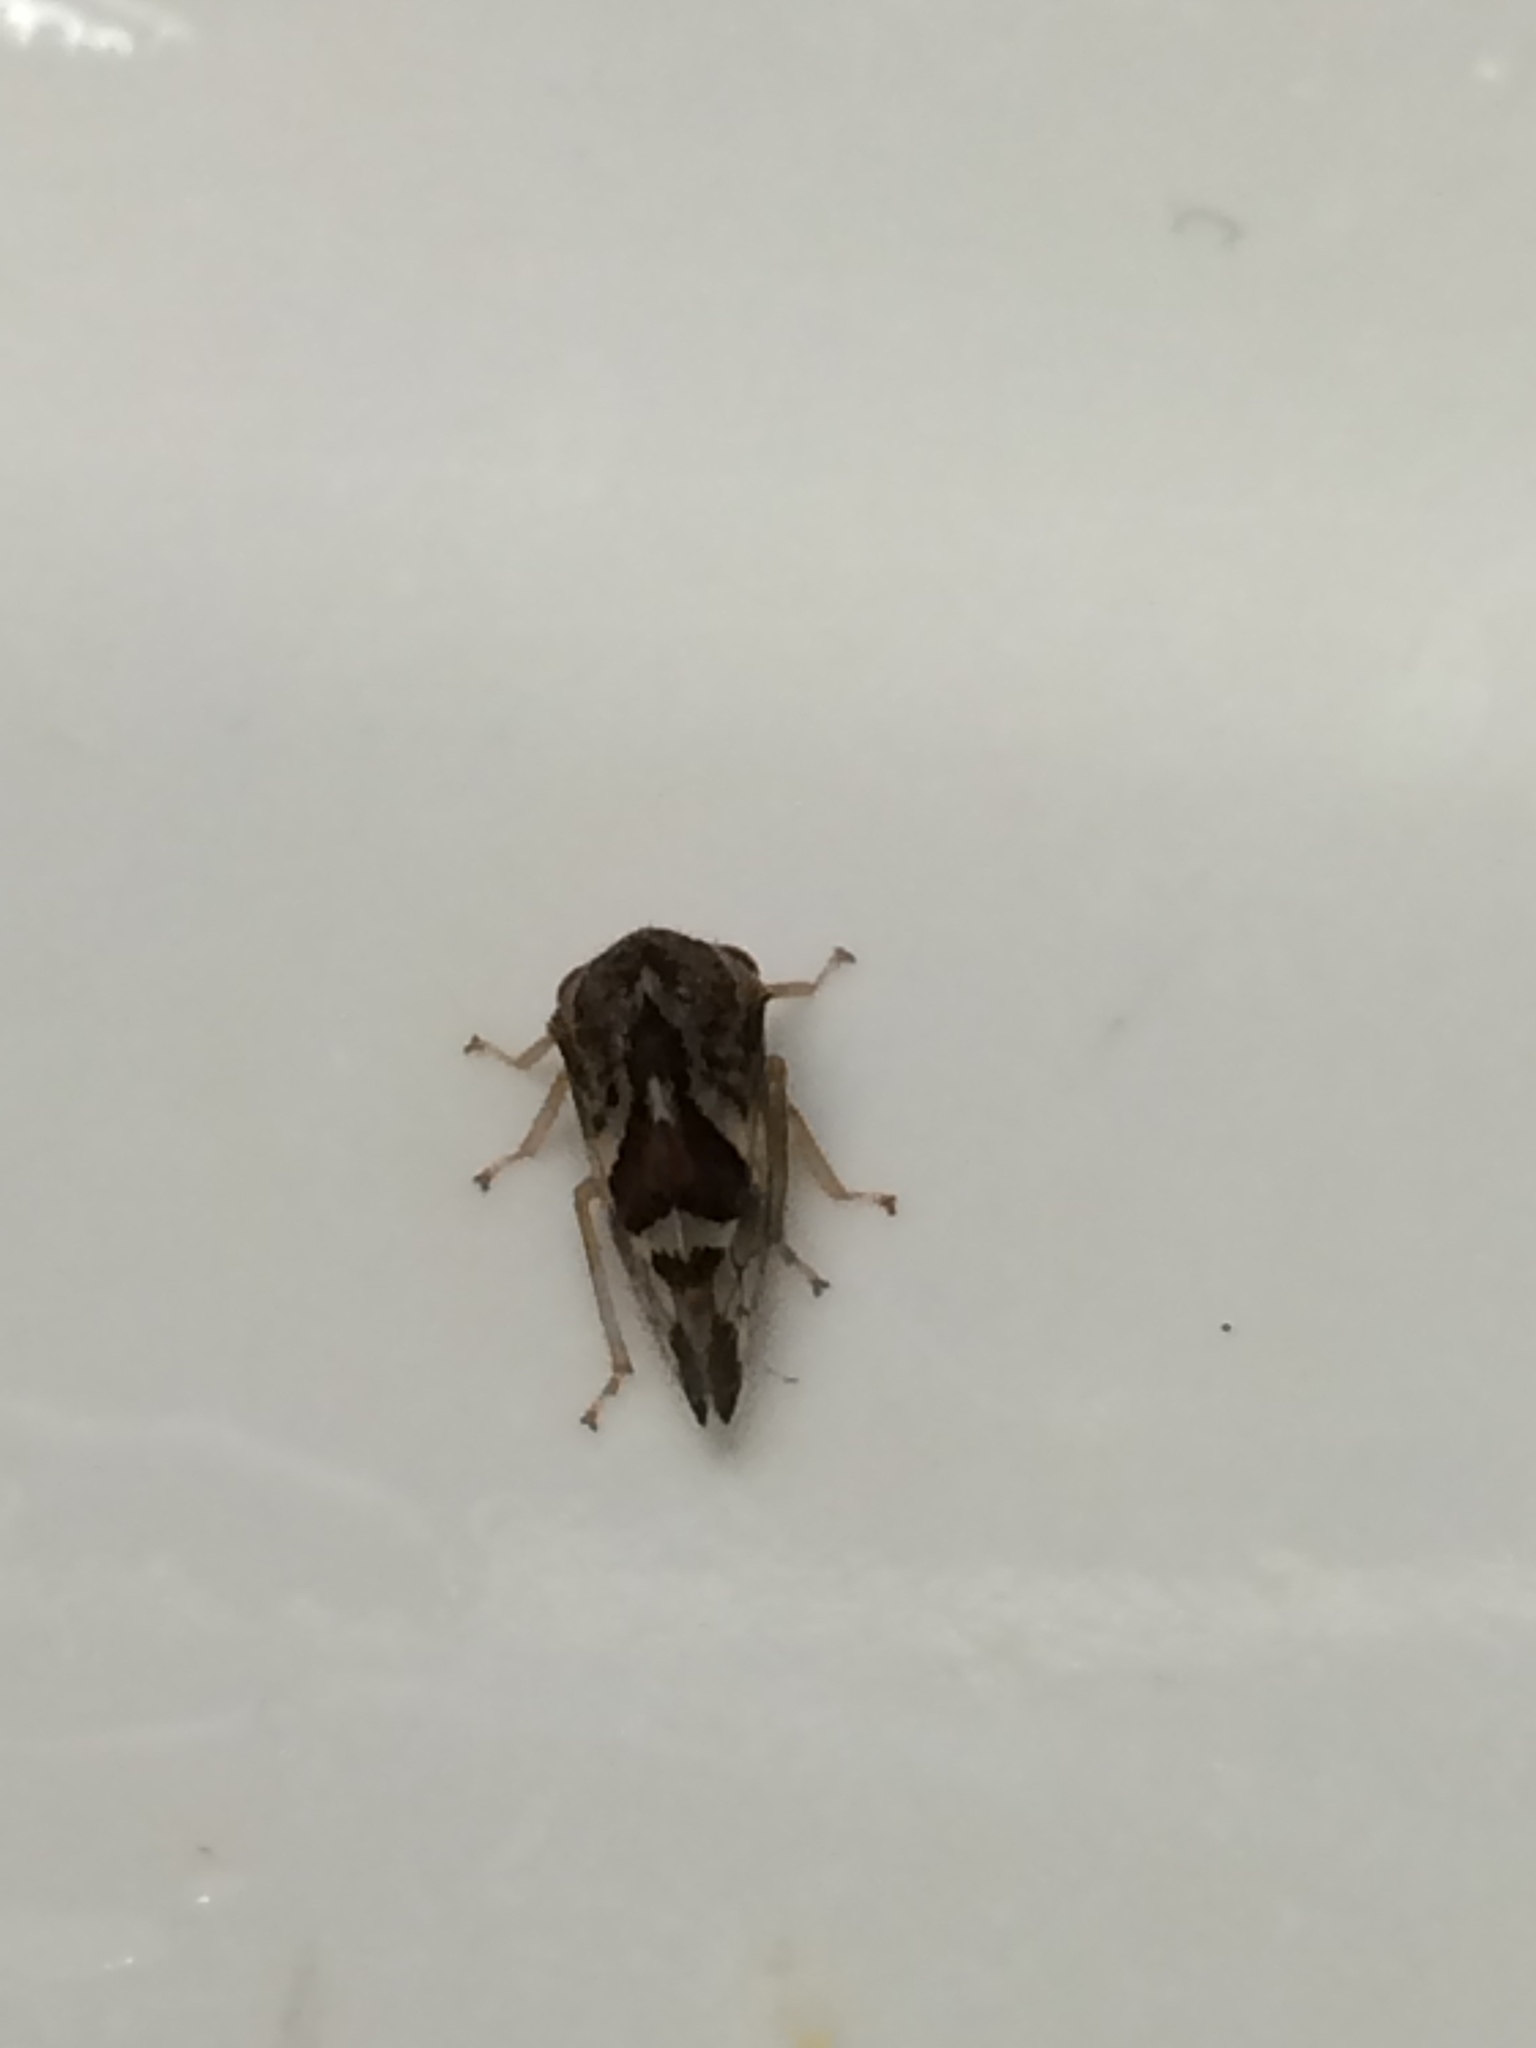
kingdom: Animalia
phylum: Arthropoda
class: Insecta
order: Hemiptera
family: Membracidae
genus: Cyrtolobus
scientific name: Cyrtolobus rufulus
